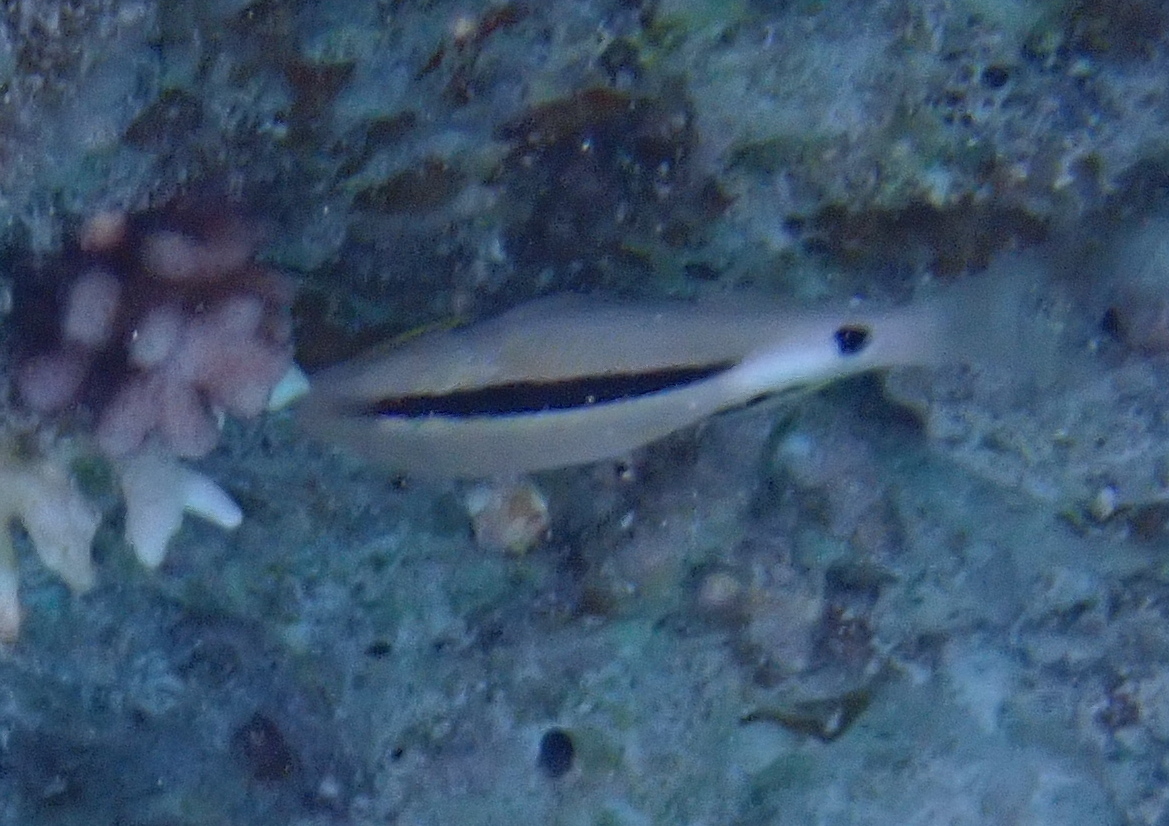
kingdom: Animalia
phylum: Chordata
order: Perciformes
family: Mullidae
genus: Parupeneus
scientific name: Parupeneus macronemus
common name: Long-barbel goatfish
